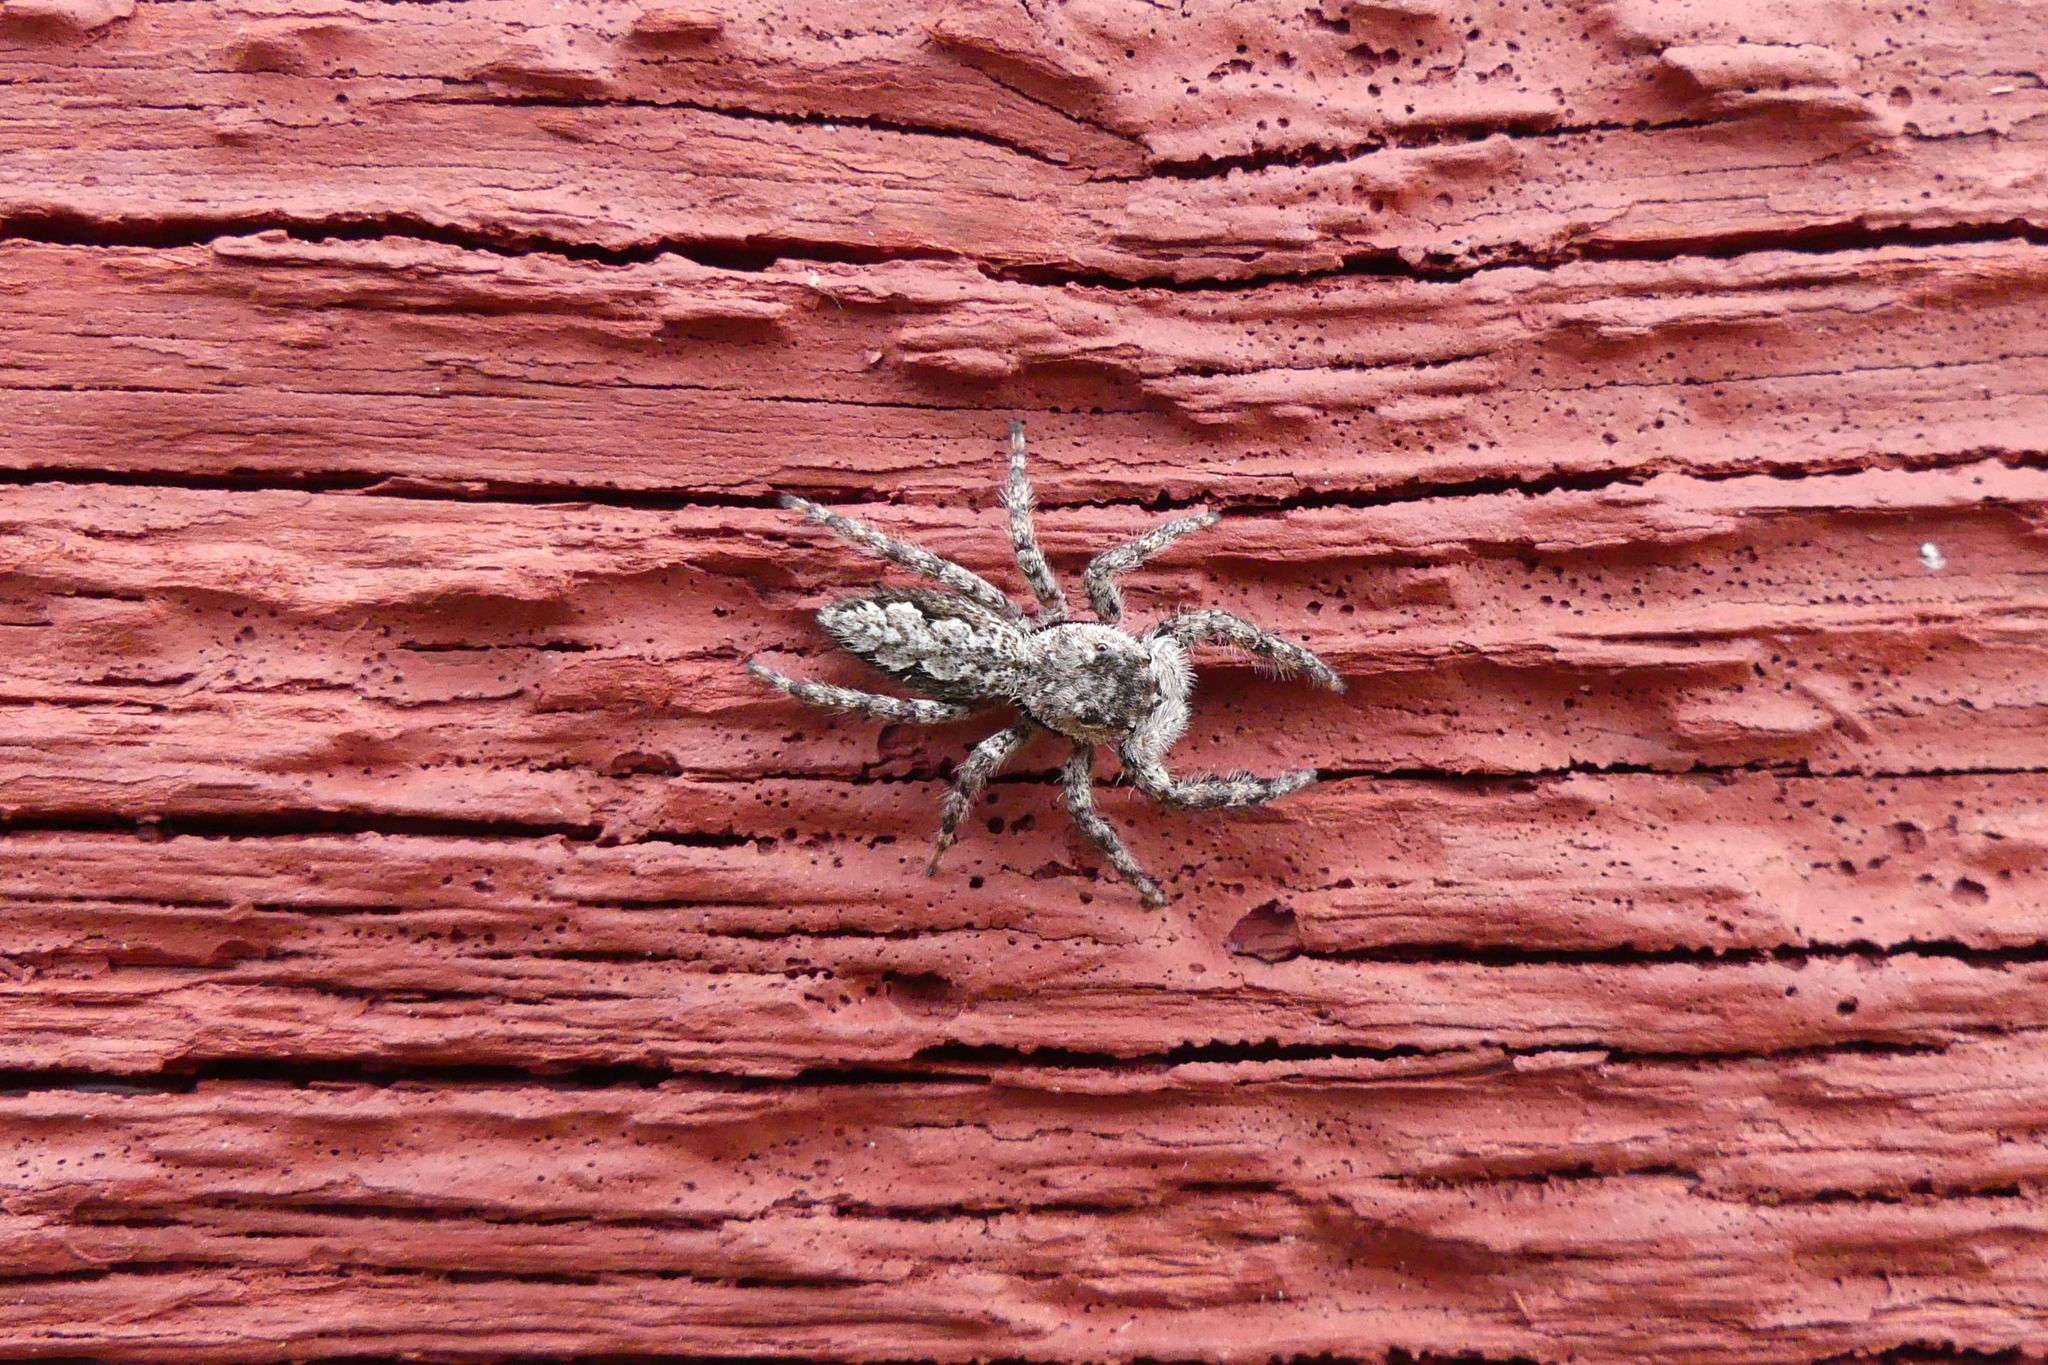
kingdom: Animalia
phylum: Arthropoda
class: Arachnida
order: Araneae
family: Salticidae
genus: Platycryptus
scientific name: Platycryptus undatus
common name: Tan jumping spider
